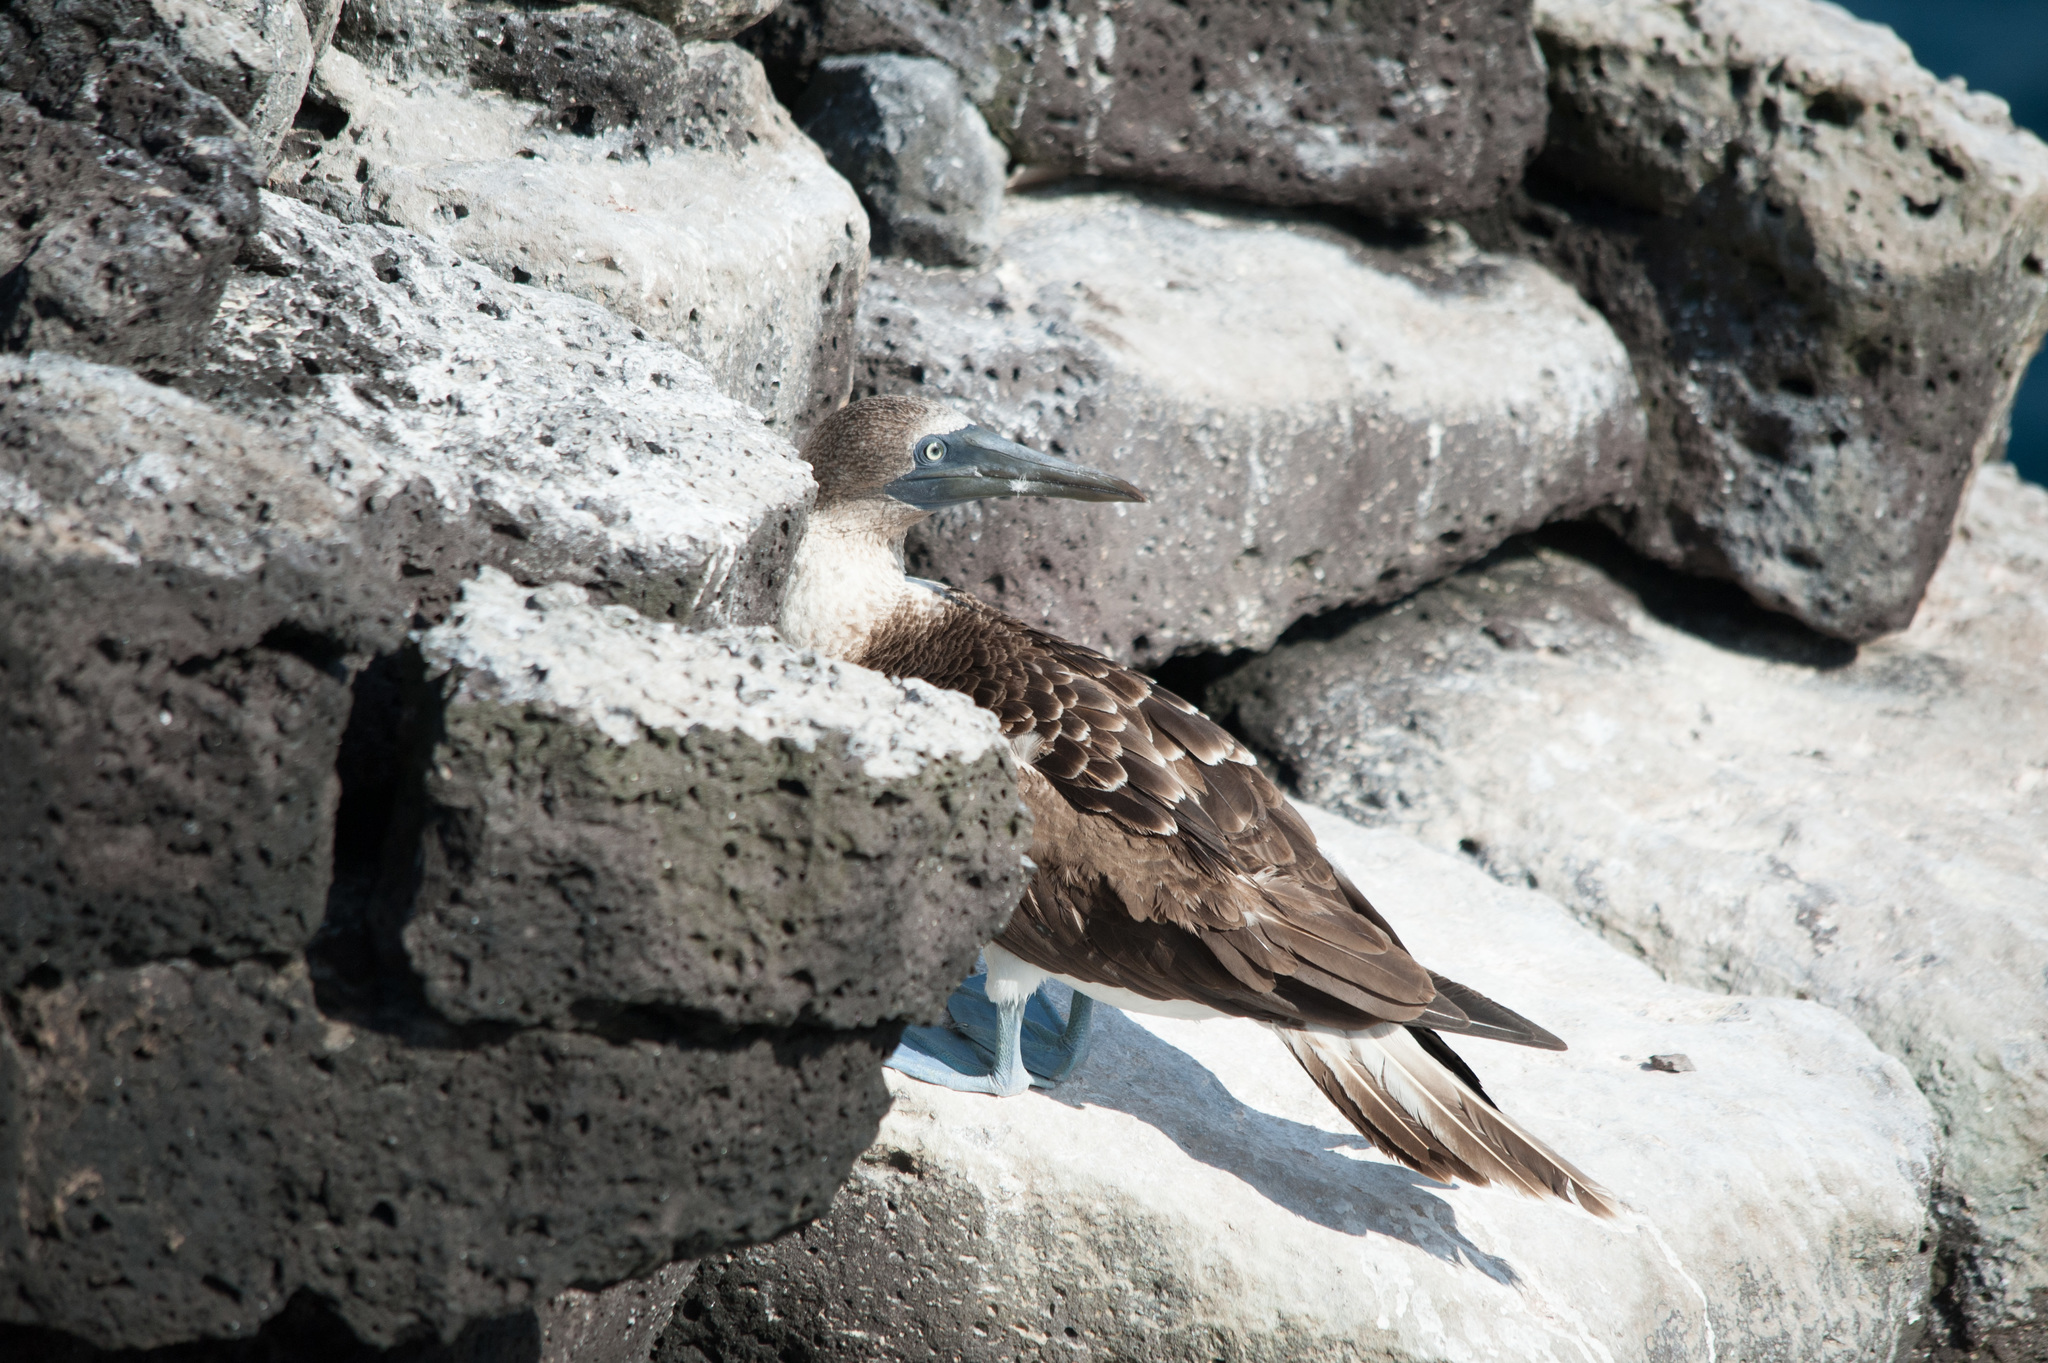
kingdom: Animalia
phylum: Chordata
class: Aves
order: Suliformes
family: Sulidae
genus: Sula
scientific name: Sula nebouxii
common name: Blue-footed booby
